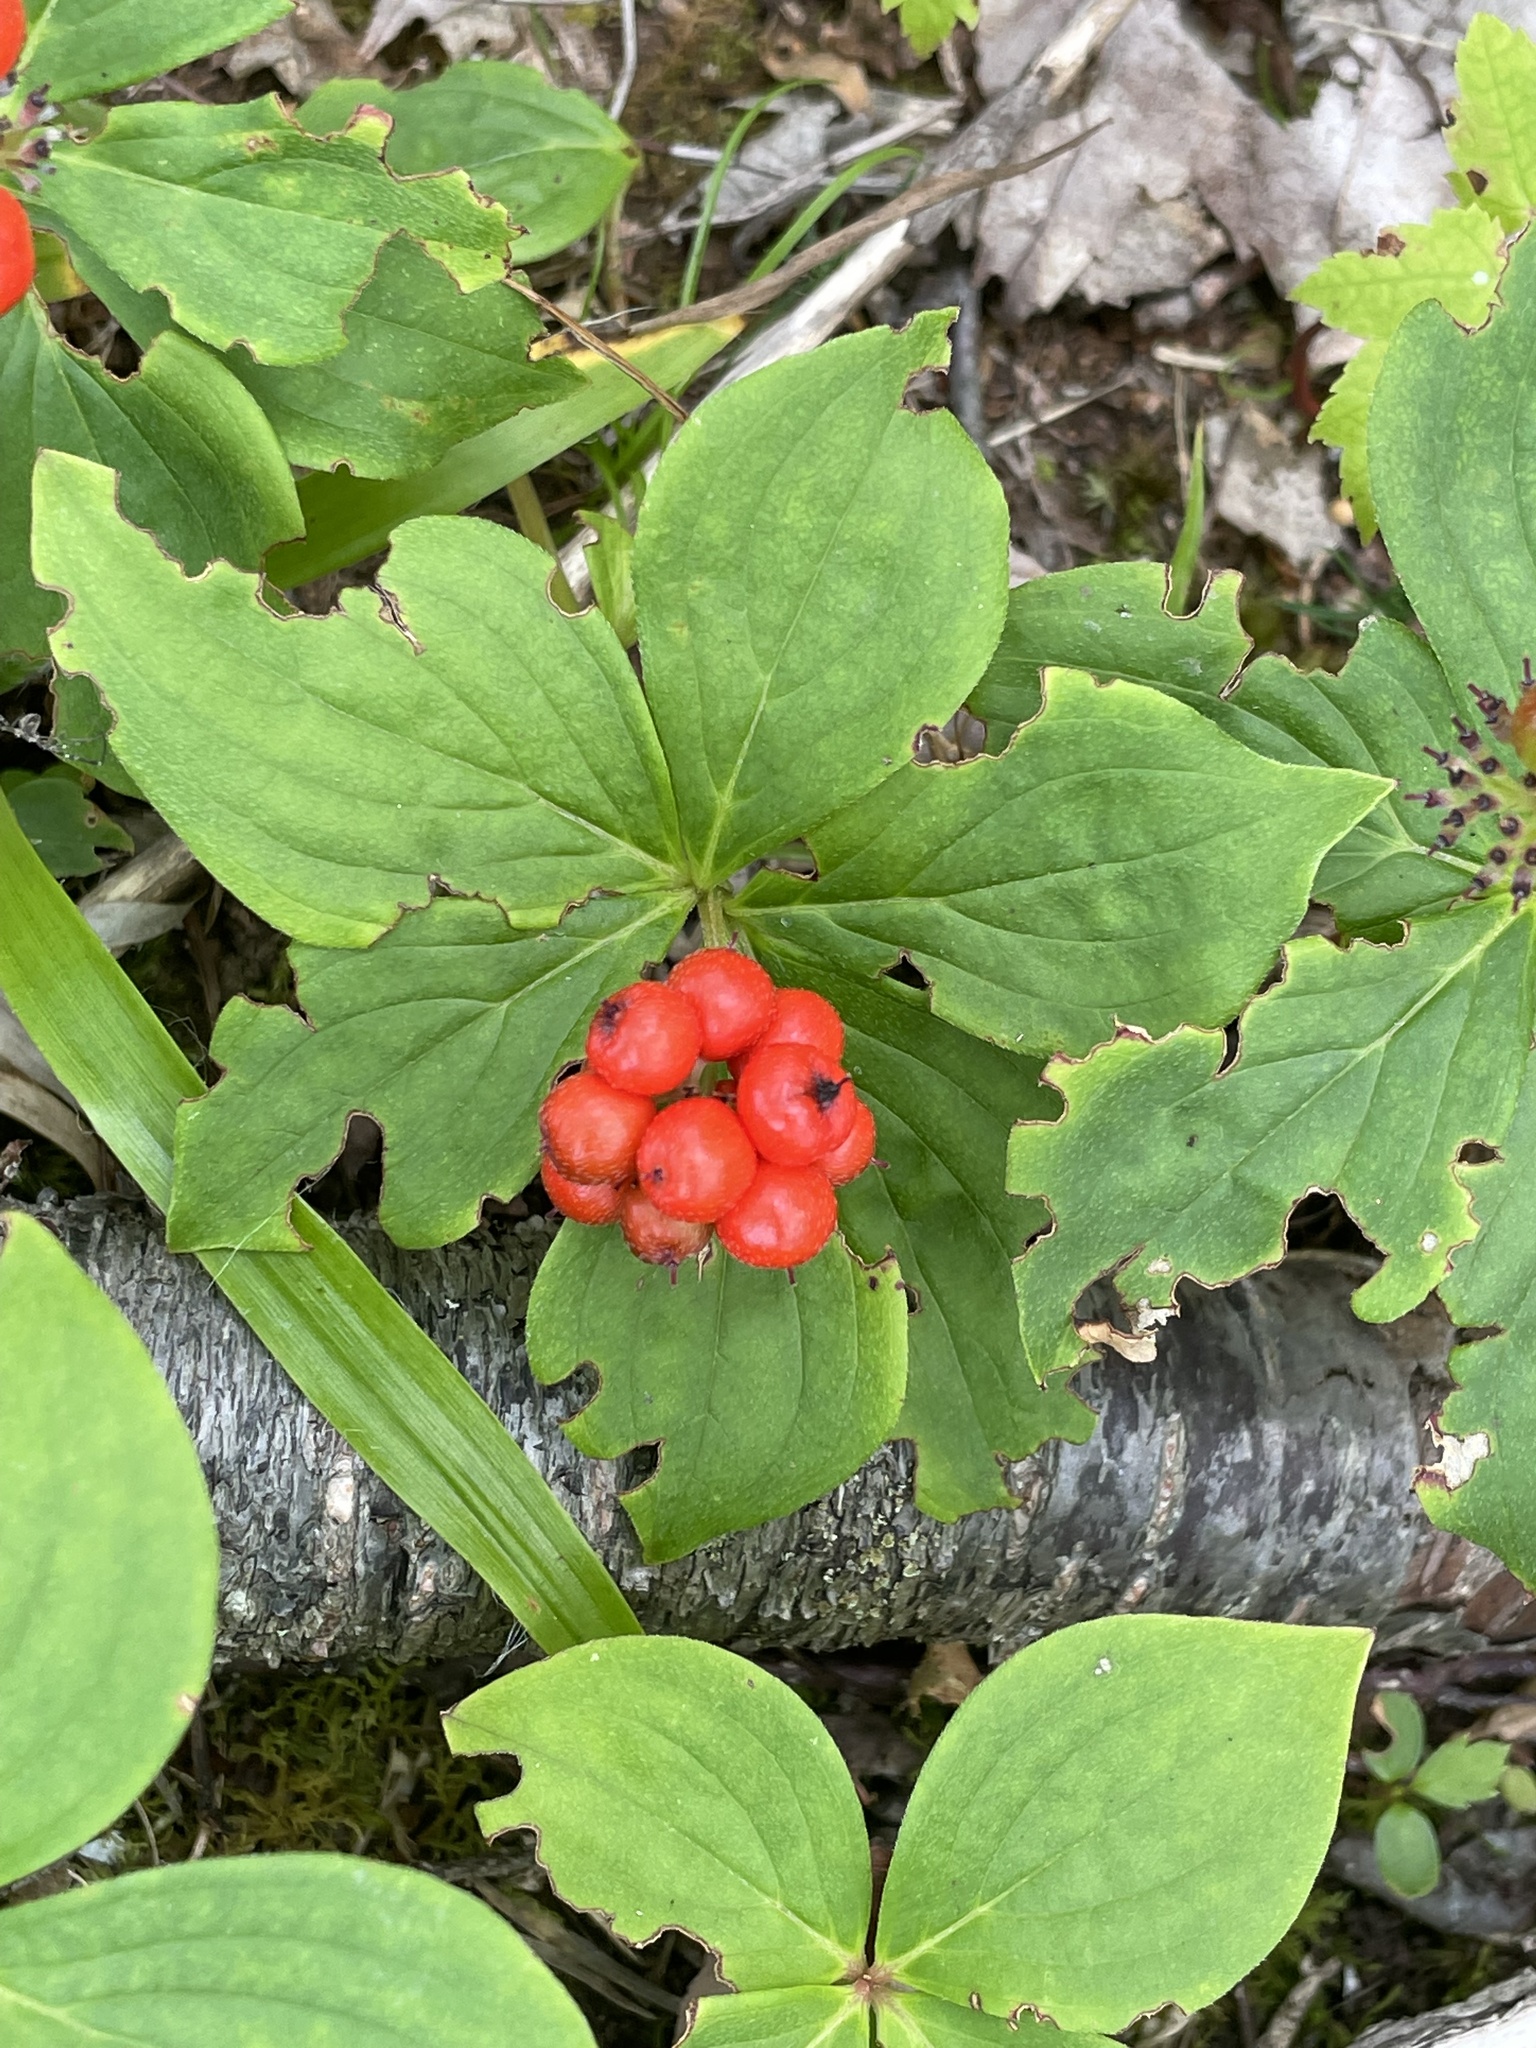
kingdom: Plantae
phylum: Tracheophyta
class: Magnoliopsida
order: Cornales
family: Cornaceae
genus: Cornus
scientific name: Cornus canadensis
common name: Creeping dogwood
